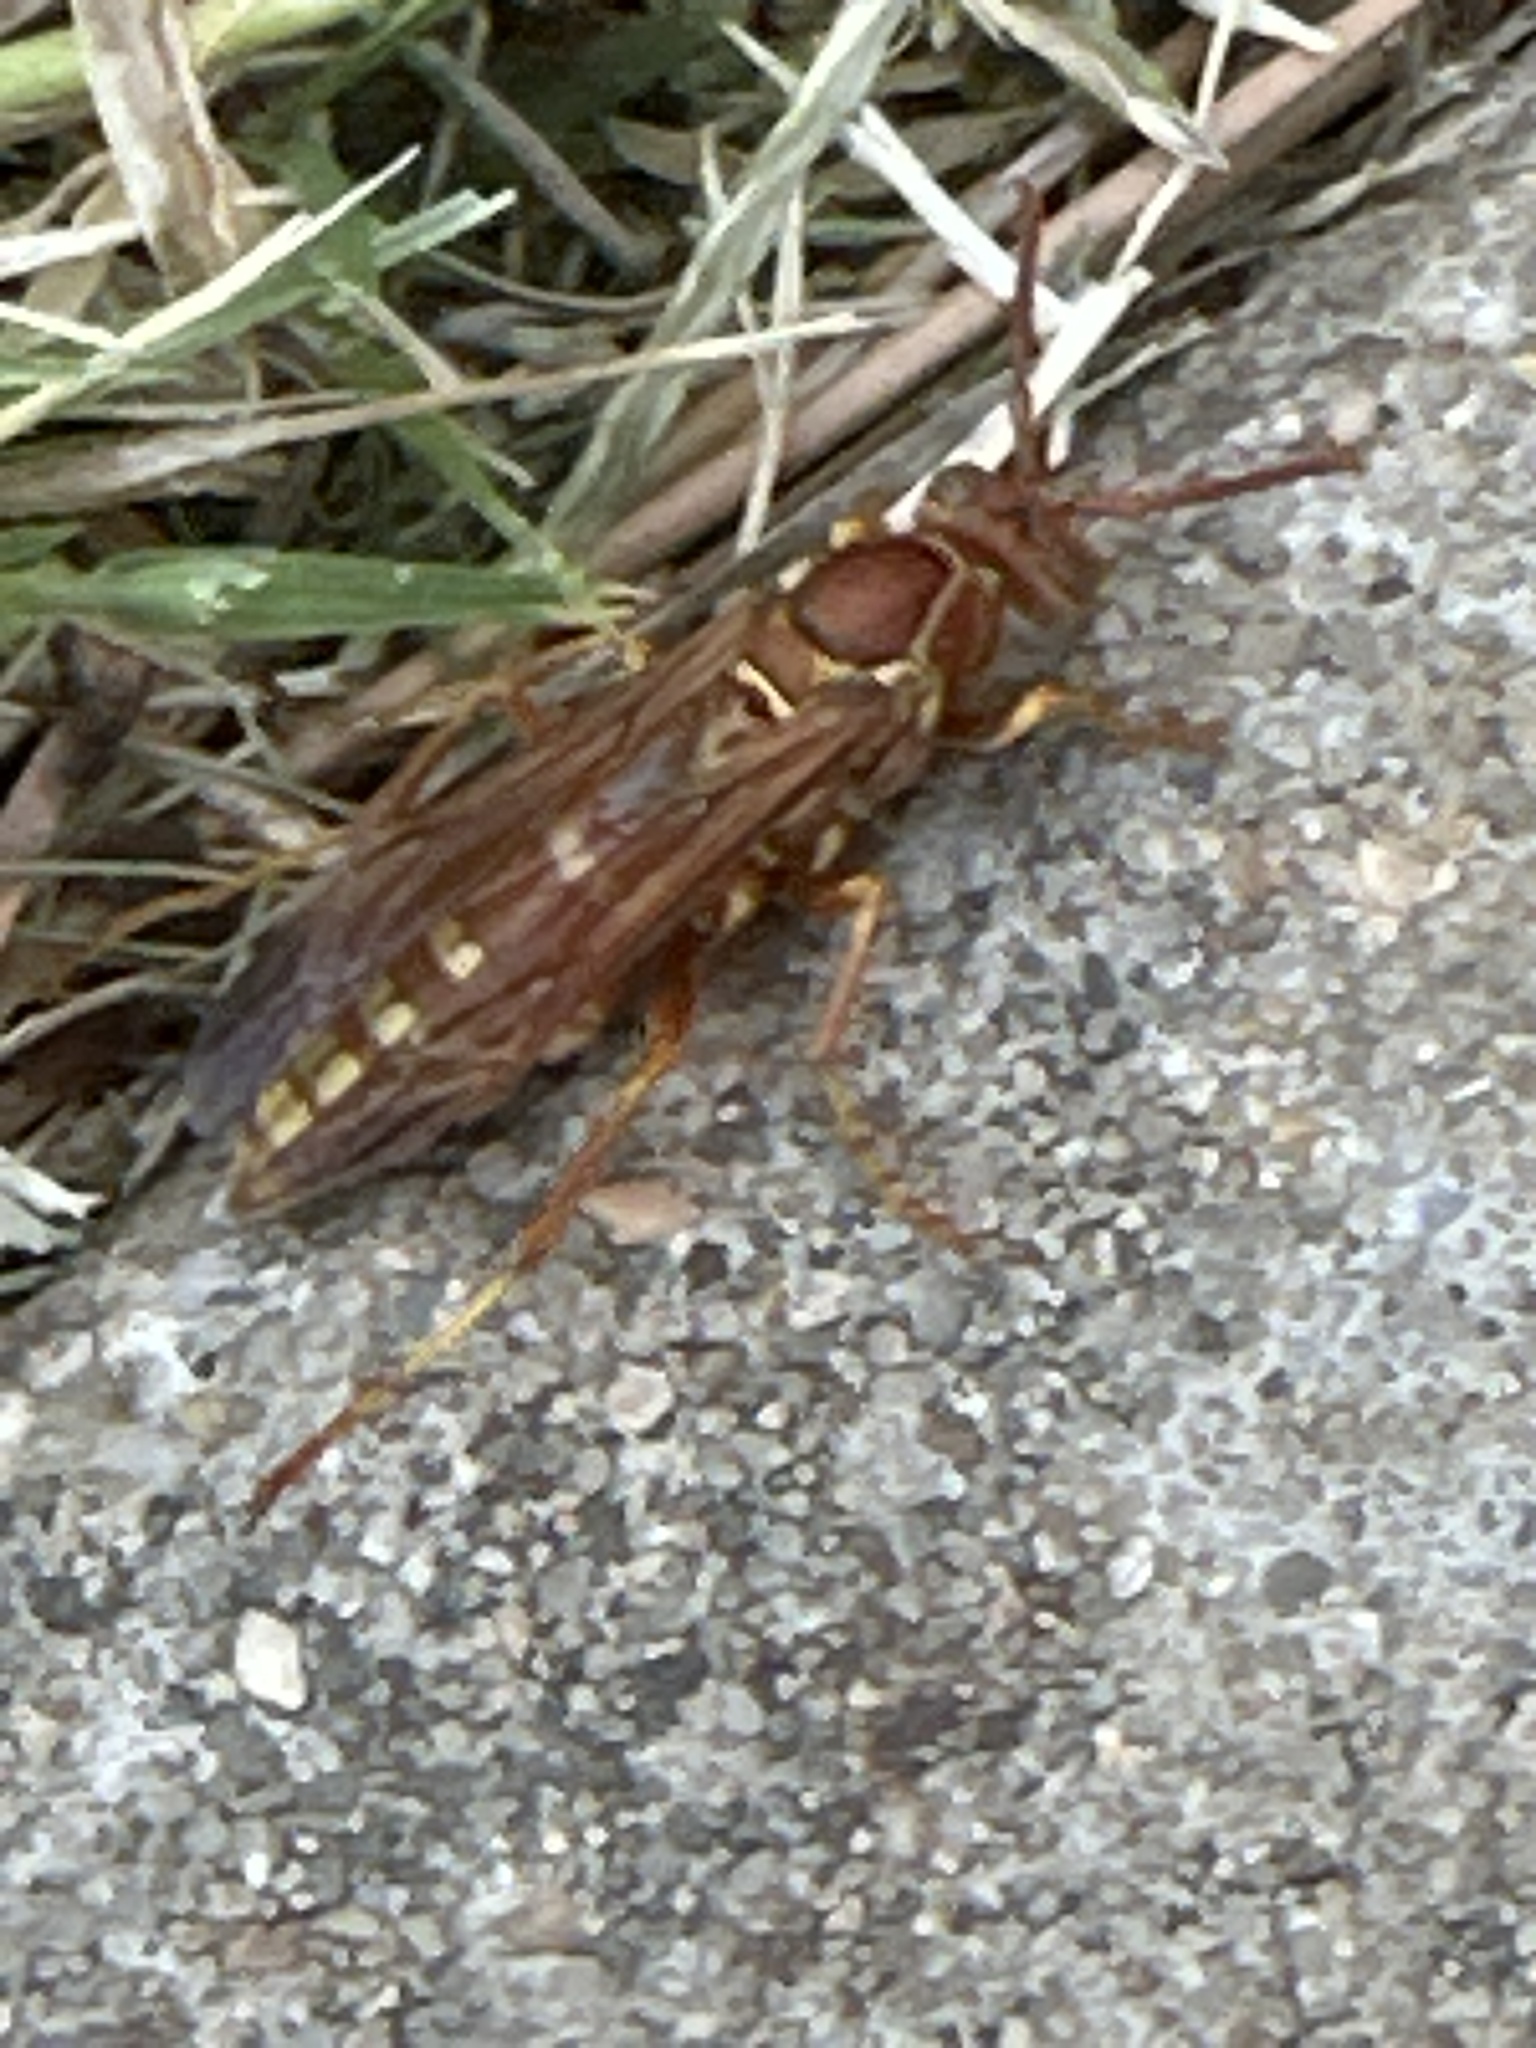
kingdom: Animalia
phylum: Arthropoda
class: Insecta
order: Hymenoptera
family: Eumenidae
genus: Polistes
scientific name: Polistes apachus
